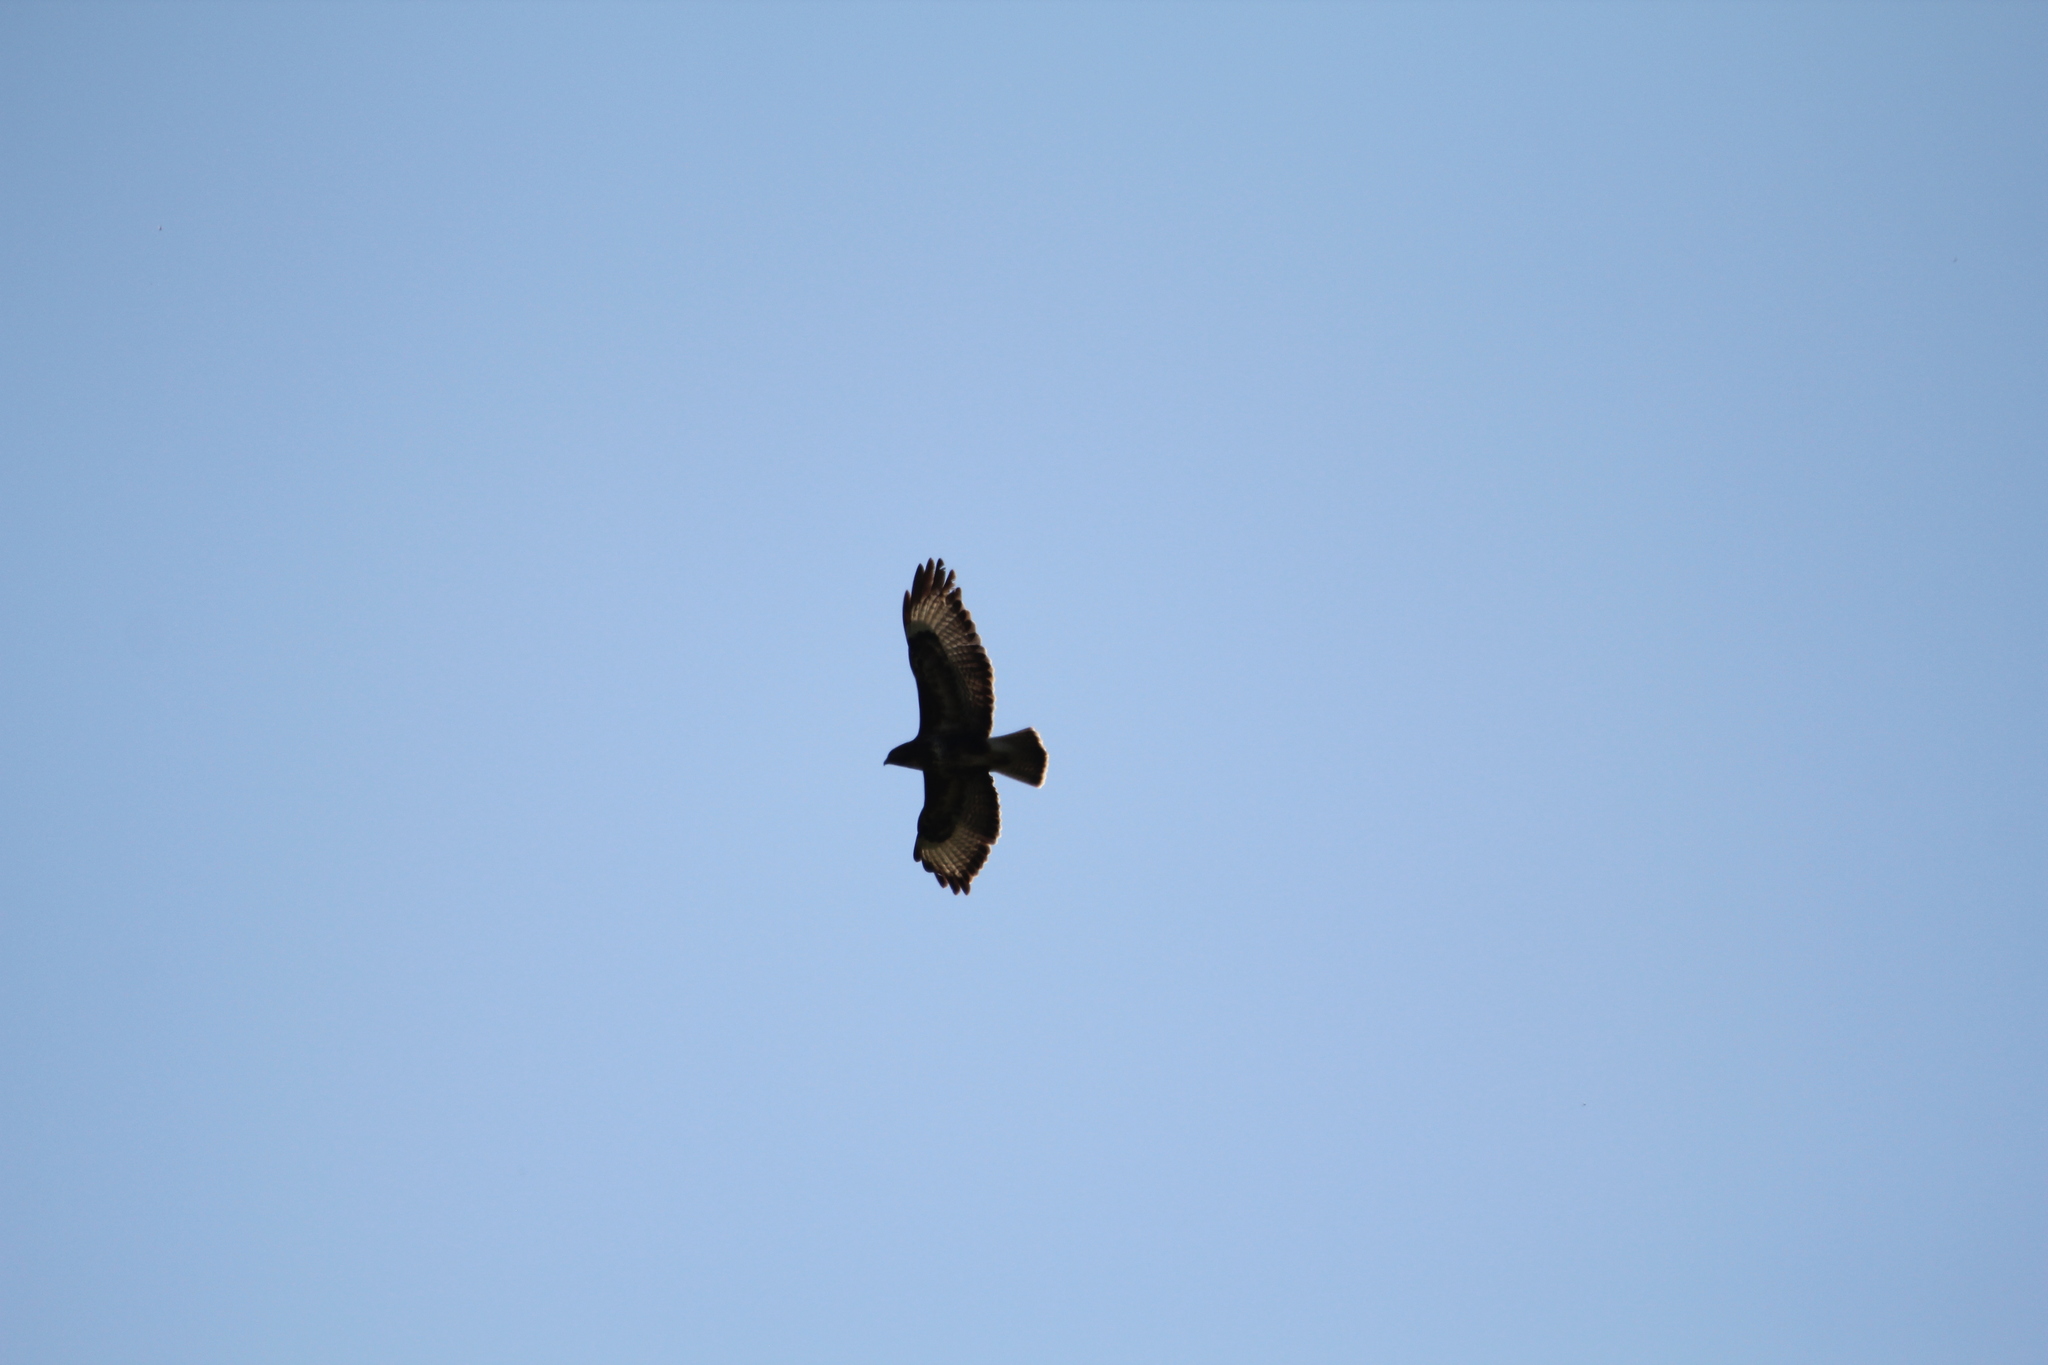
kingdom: Animalia
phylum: Chordata
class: Aves
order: Accipitriformes
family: Accipitridae
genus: Buteo
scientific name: Buteo buteo
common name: Common buzzard
